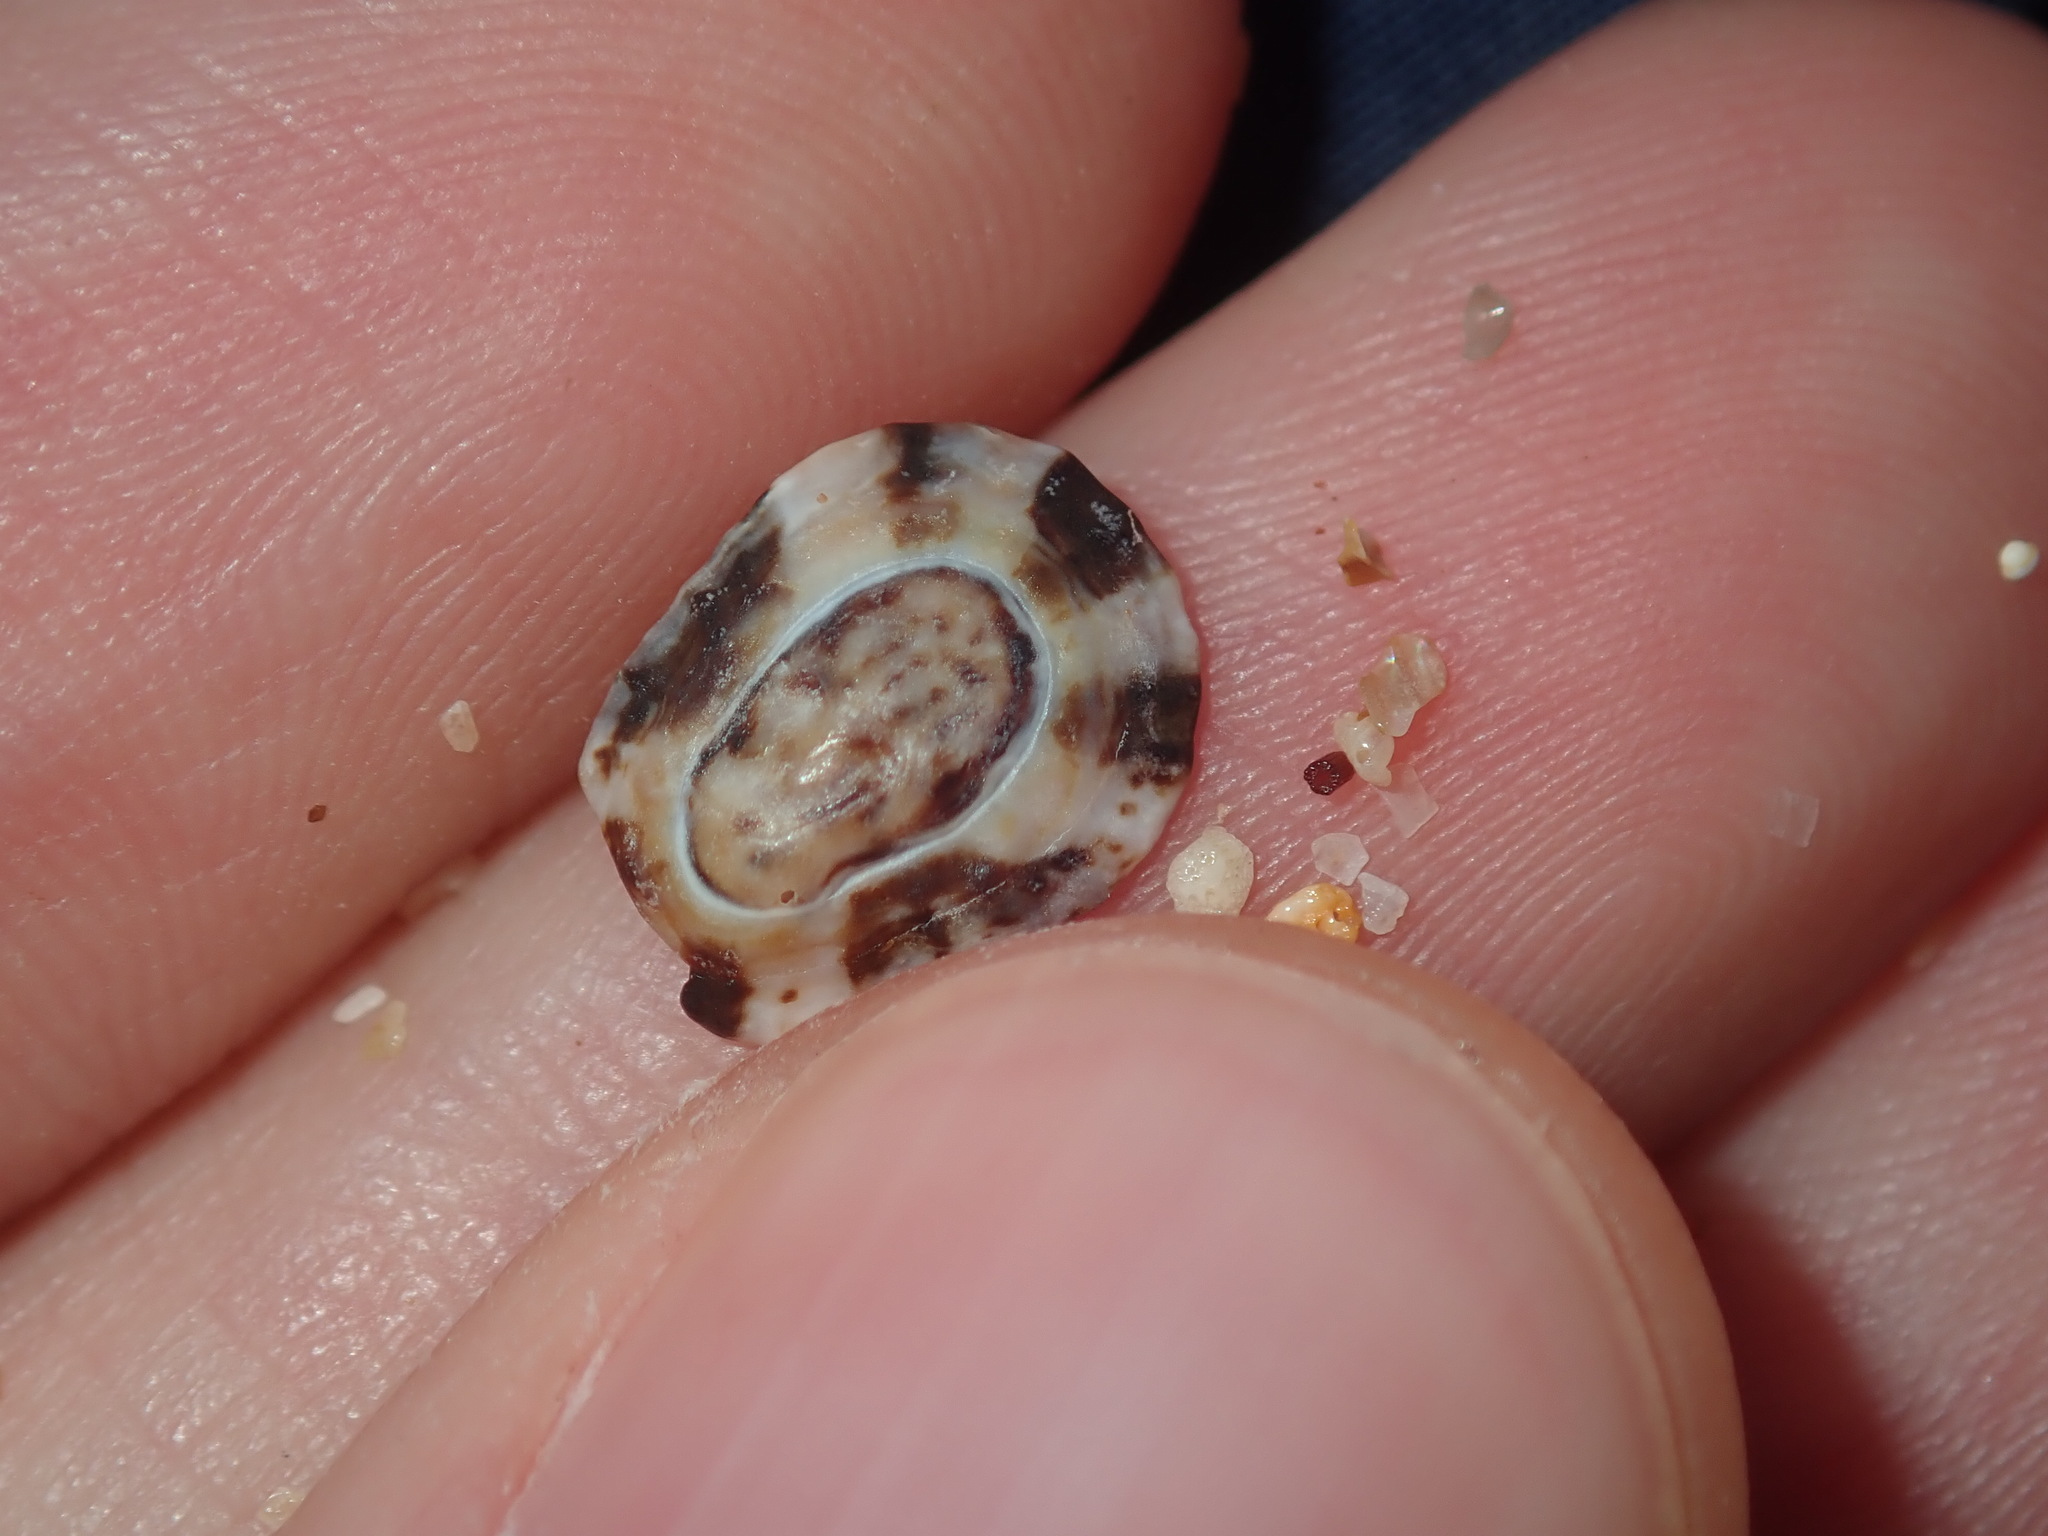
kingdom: Animalia
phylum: Mollusca
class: Gastropoda
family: Lottiidae
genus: Patelloida
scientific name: Patelloida latistrigata
